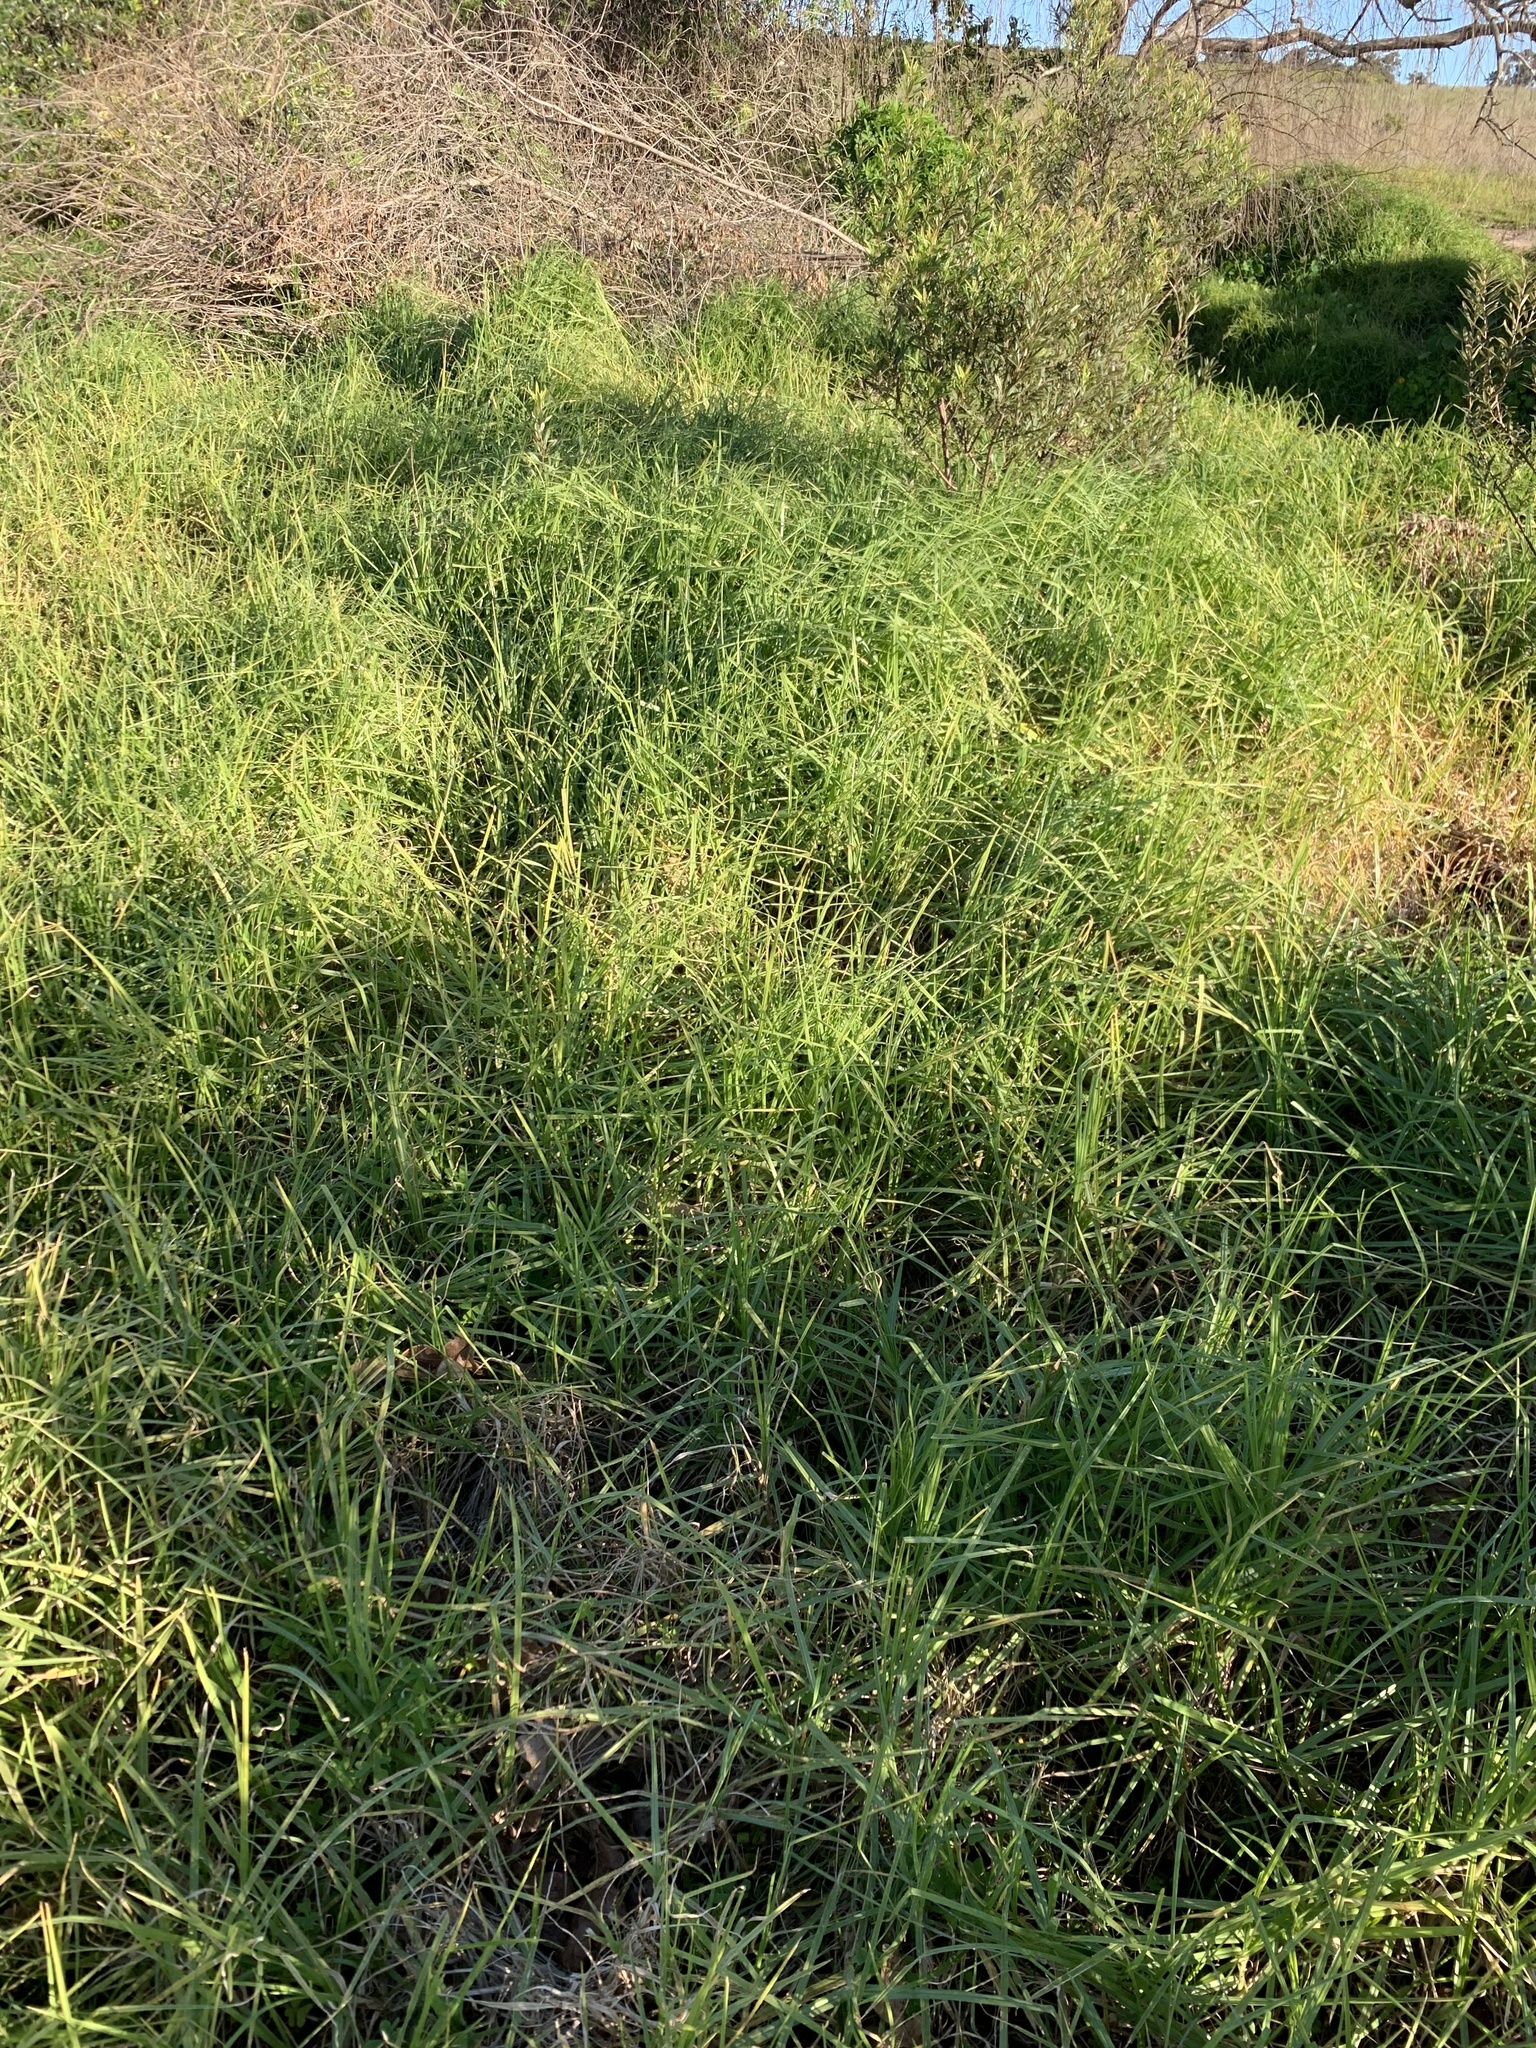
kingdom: Plantae
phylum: Tracheophyta
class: Liliopsida
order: Poales
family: Poaceae
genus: Cenchrus
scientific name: Cenchrus clandestinus
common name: Kikuyugrass
